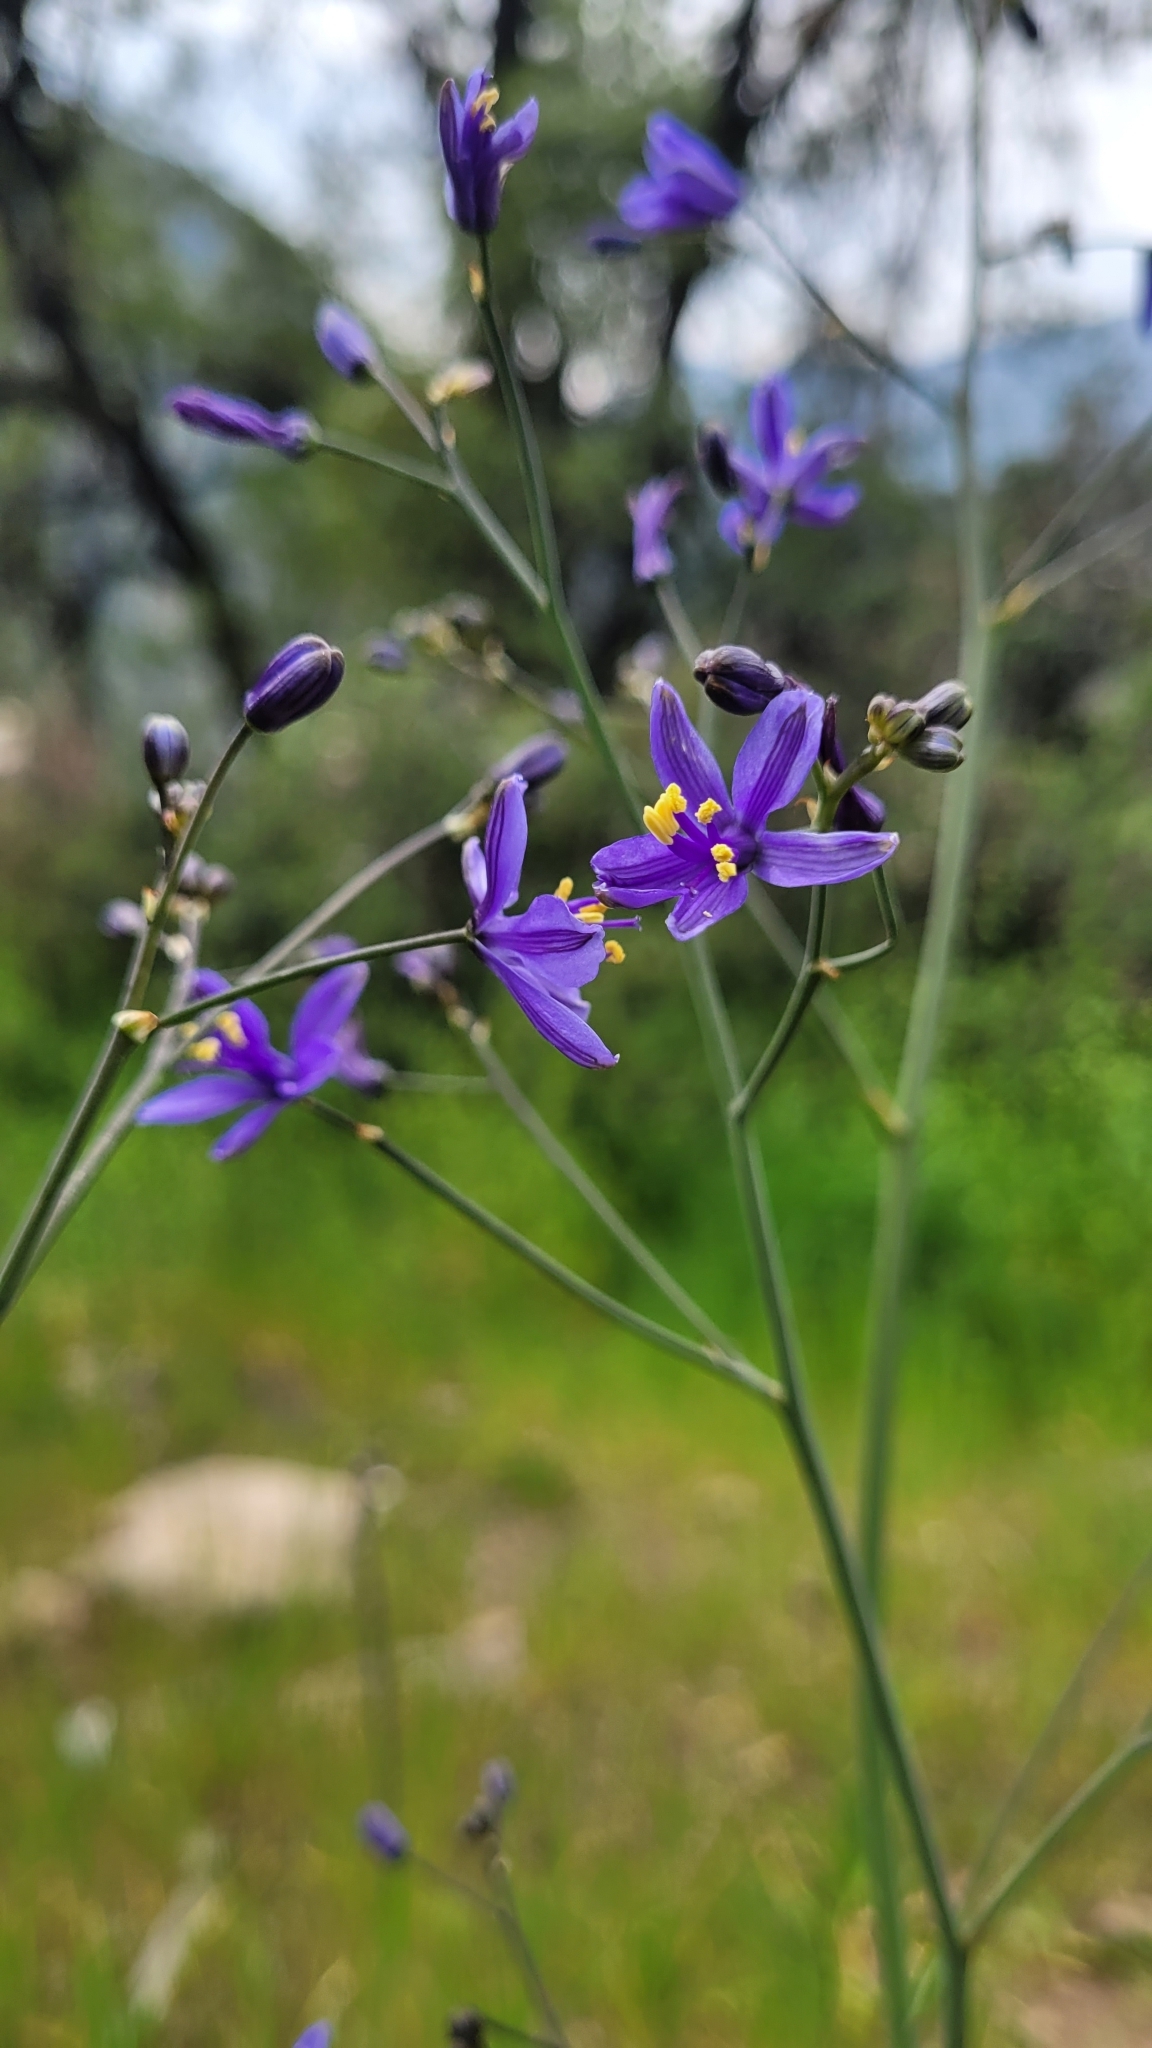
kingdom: Plantae
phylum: Tracheophyta
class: Liliopsida
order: Asparagales
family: Asphodelaceae
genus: Pasithea
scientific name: Pasithea caerulea
